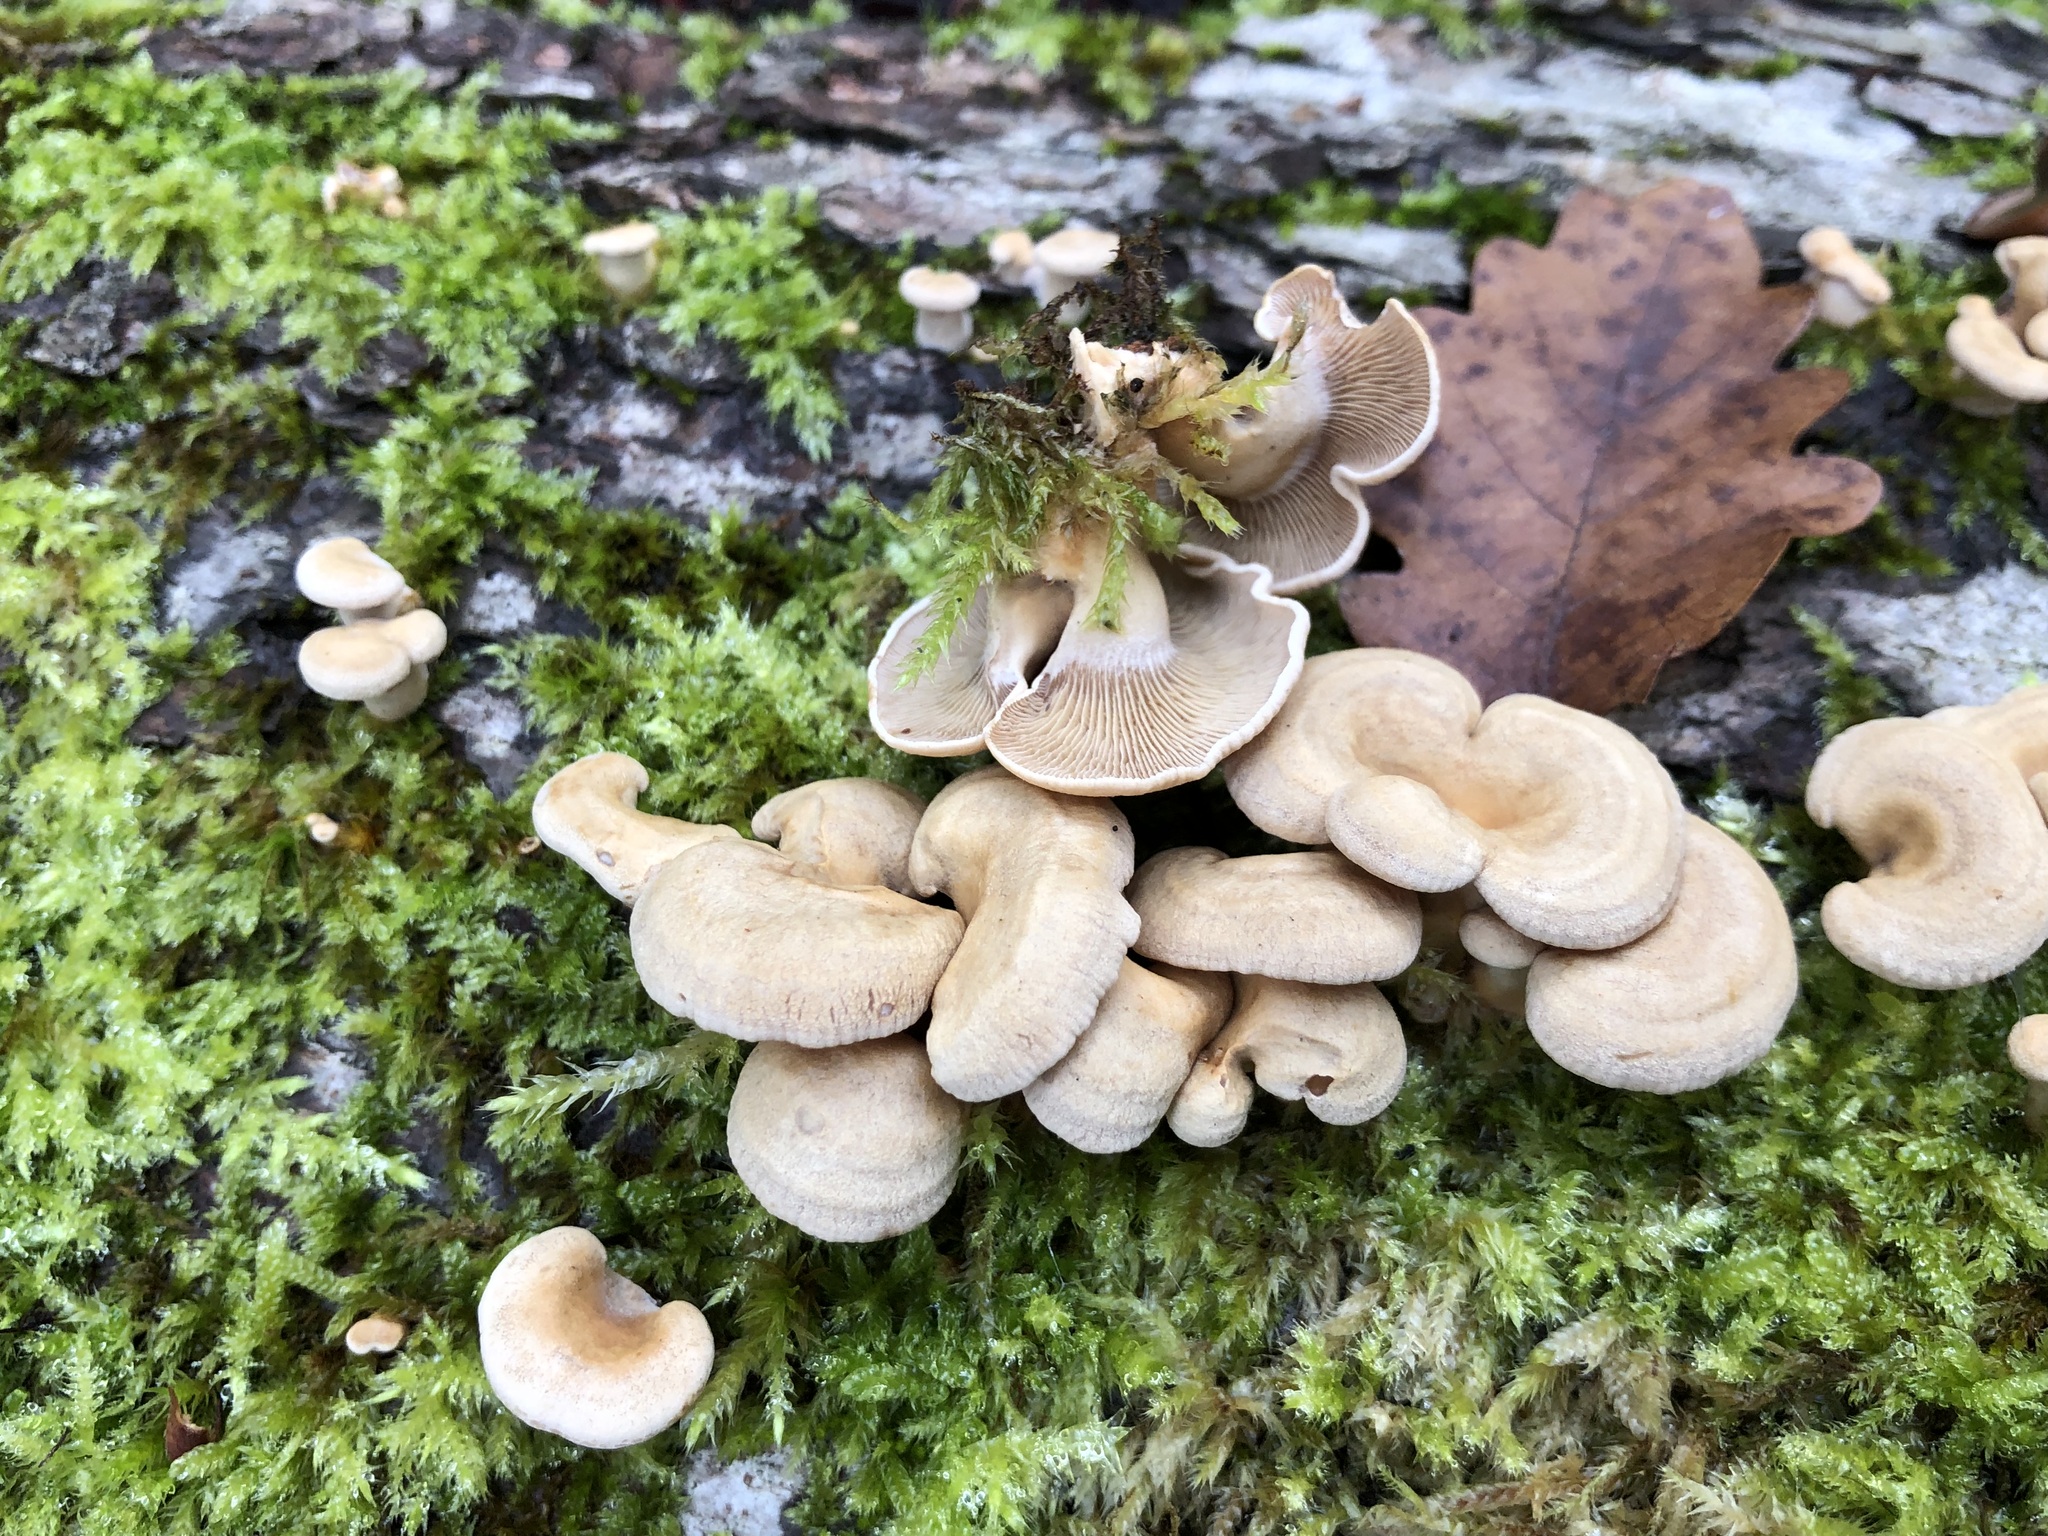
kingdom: Fungi
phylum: Basidiomycota
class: Agaricomycetes
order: Agaricales
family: Mycenaceae
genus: Panellus
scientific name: Panellus stipticus
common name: Bitter oysterling
